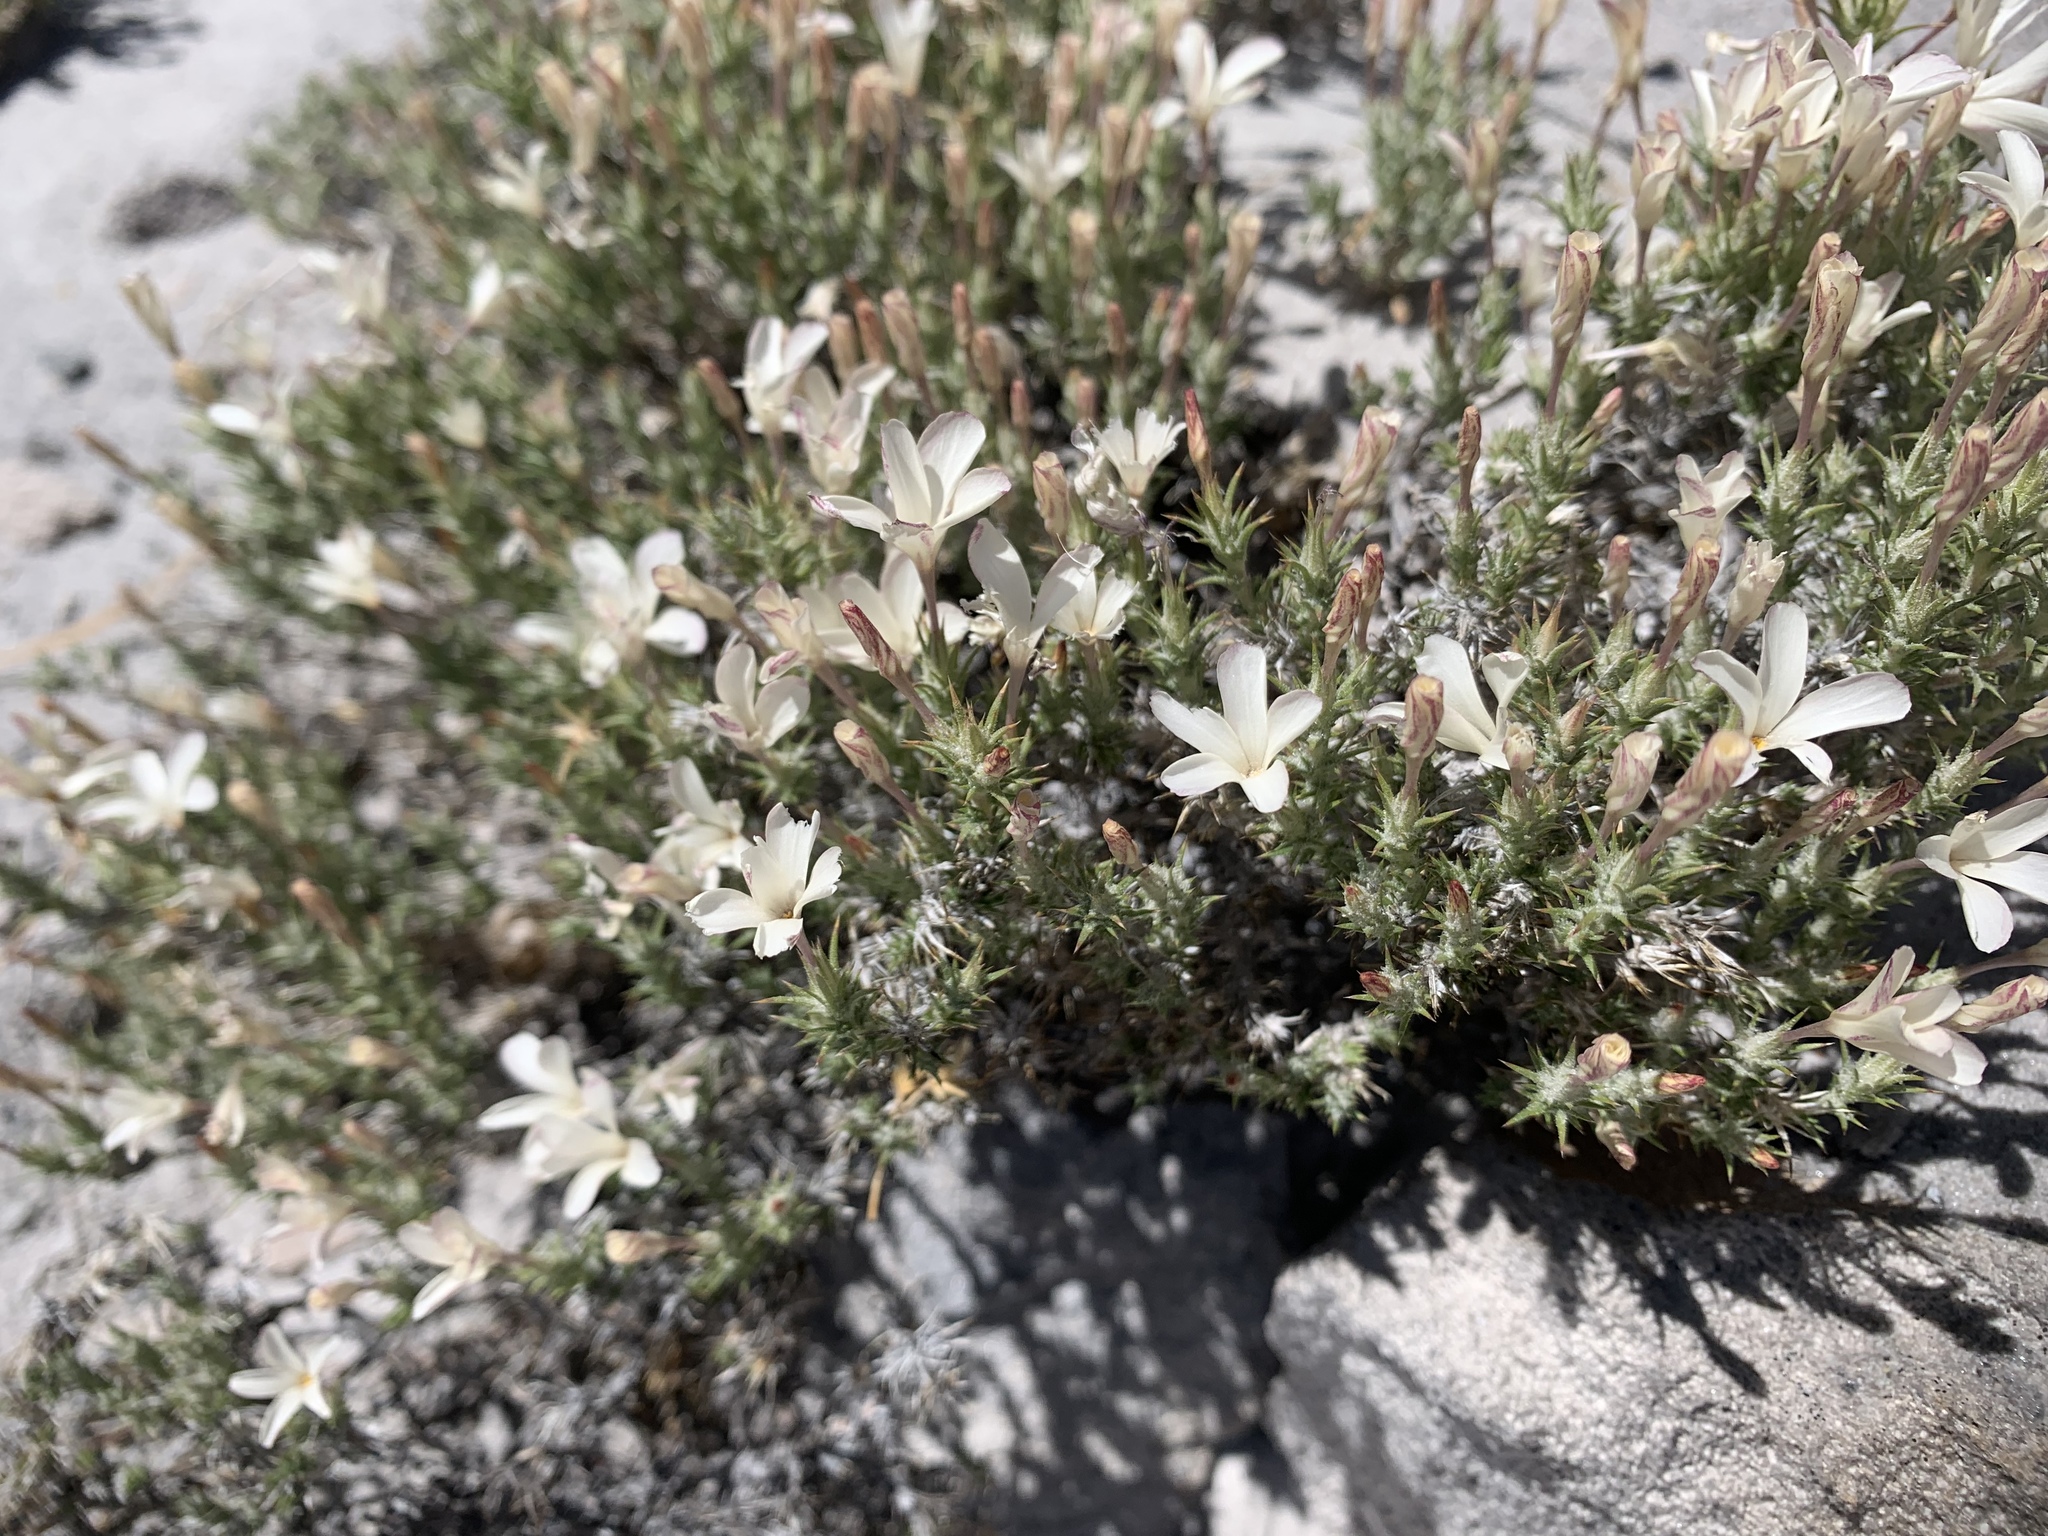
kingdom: Plantae
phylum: Tracheophyta
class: Magnoliopsida
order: Ericales
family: Polemoniaceae
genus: Linanthus
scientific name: Linanthus pungens
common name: Granite prickly phlox
